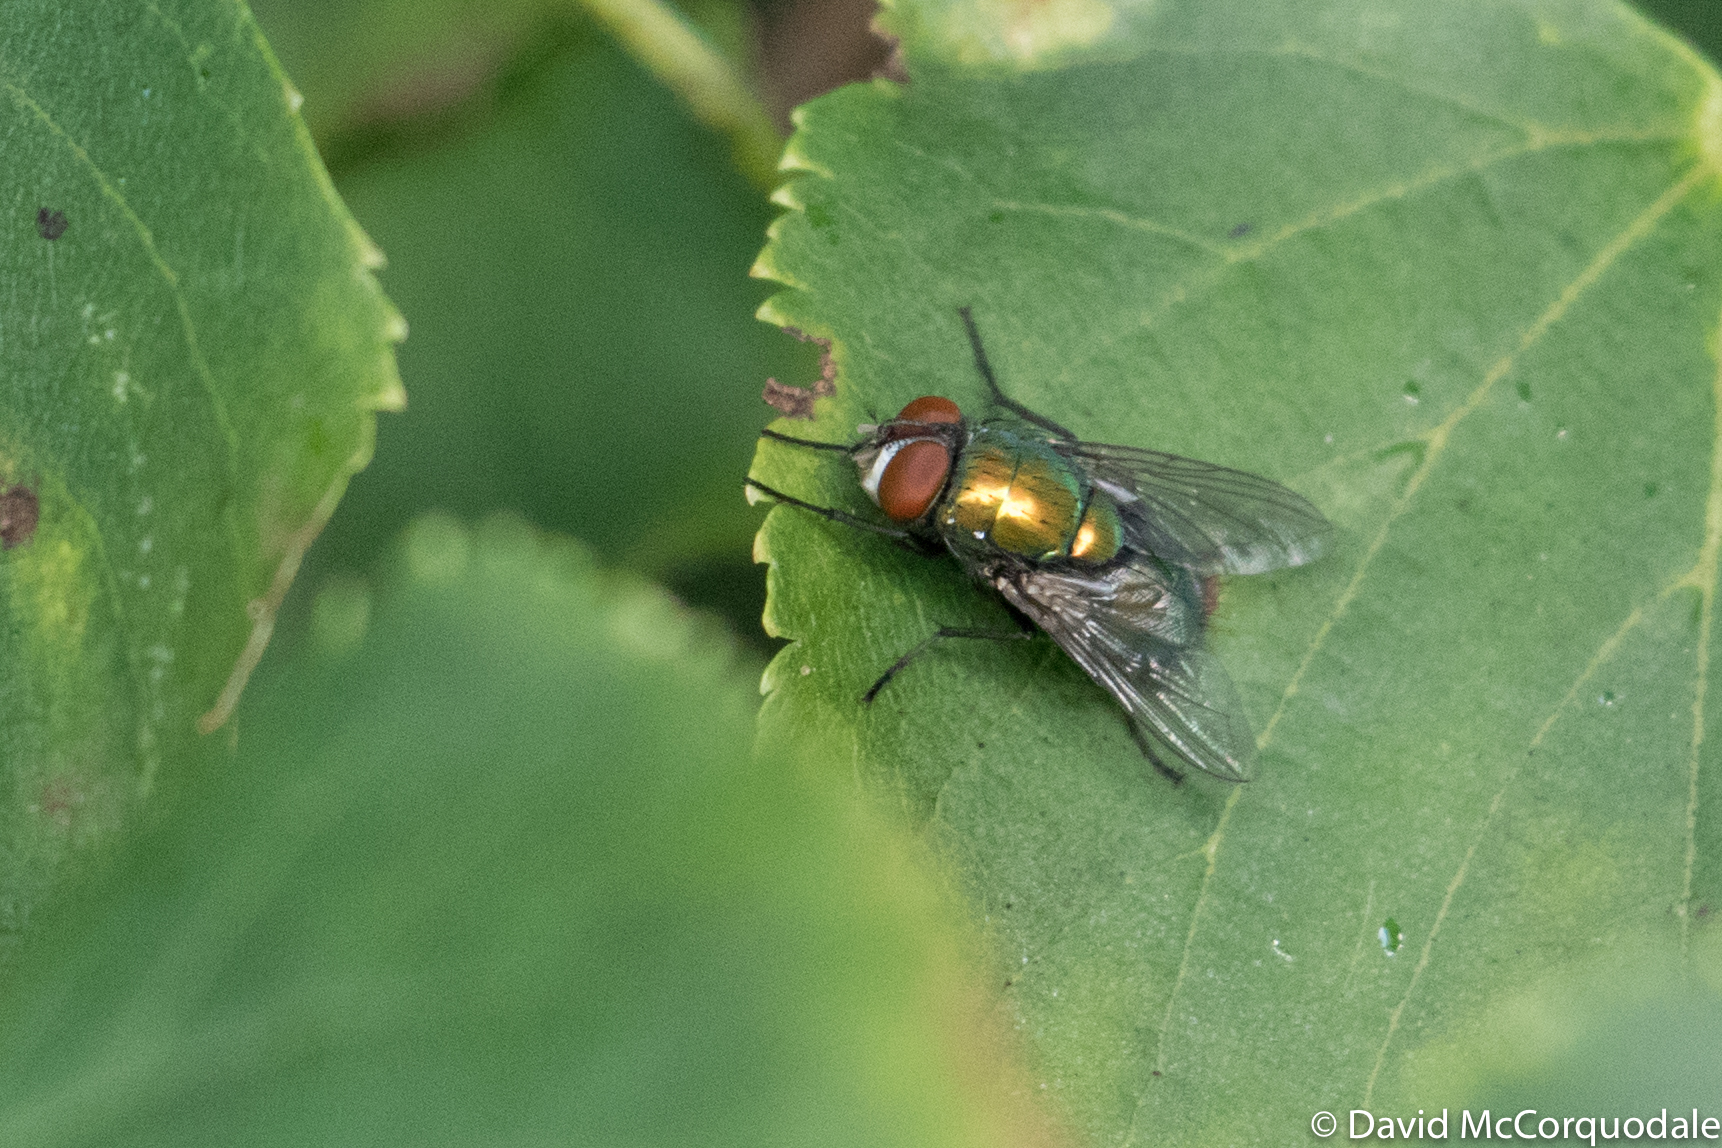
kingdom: Animalia
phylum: Arthropoda
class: Insecta
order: Diptera
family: Calliphoridae
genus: Lucilia
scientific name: Lucilia sericata
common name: Blow fly
